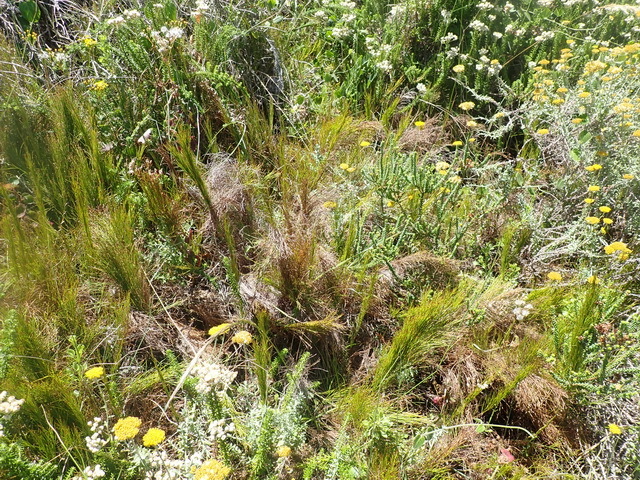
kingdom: Plantae
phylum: Tracheophyta
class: Liliopsida
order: Poales
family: Restionaceae
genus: Restio
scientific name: Restio leptoclados
